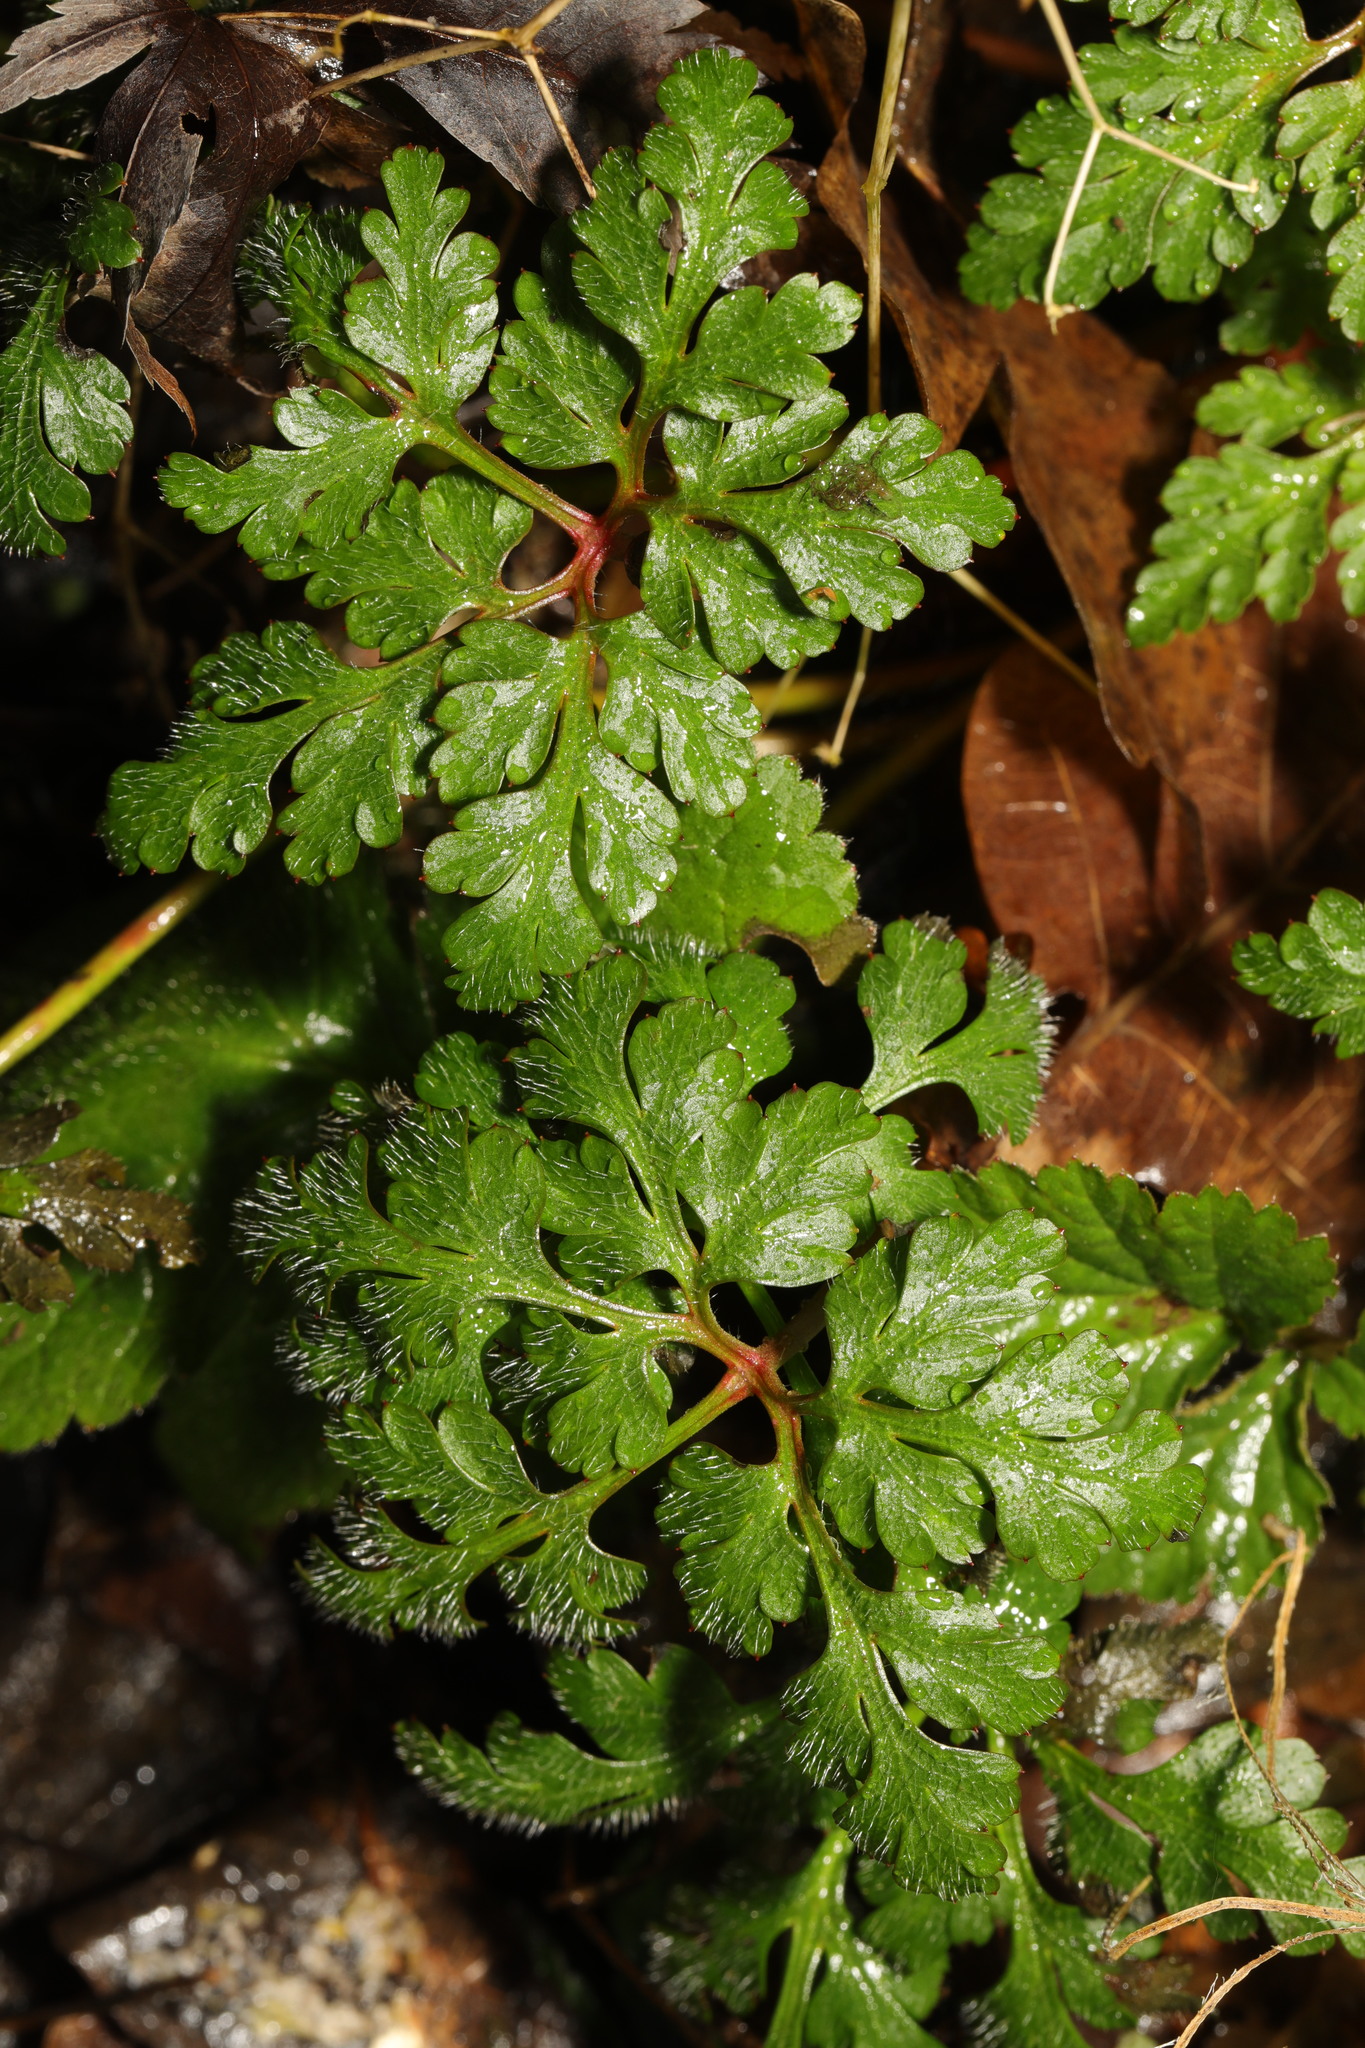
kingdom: Plantae
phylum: Tracheophyta
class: Magnoliopsida
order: Geraniales
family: Geraniaceae
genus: Geranium
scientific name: Geranium robertianum
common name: Herb-robert
